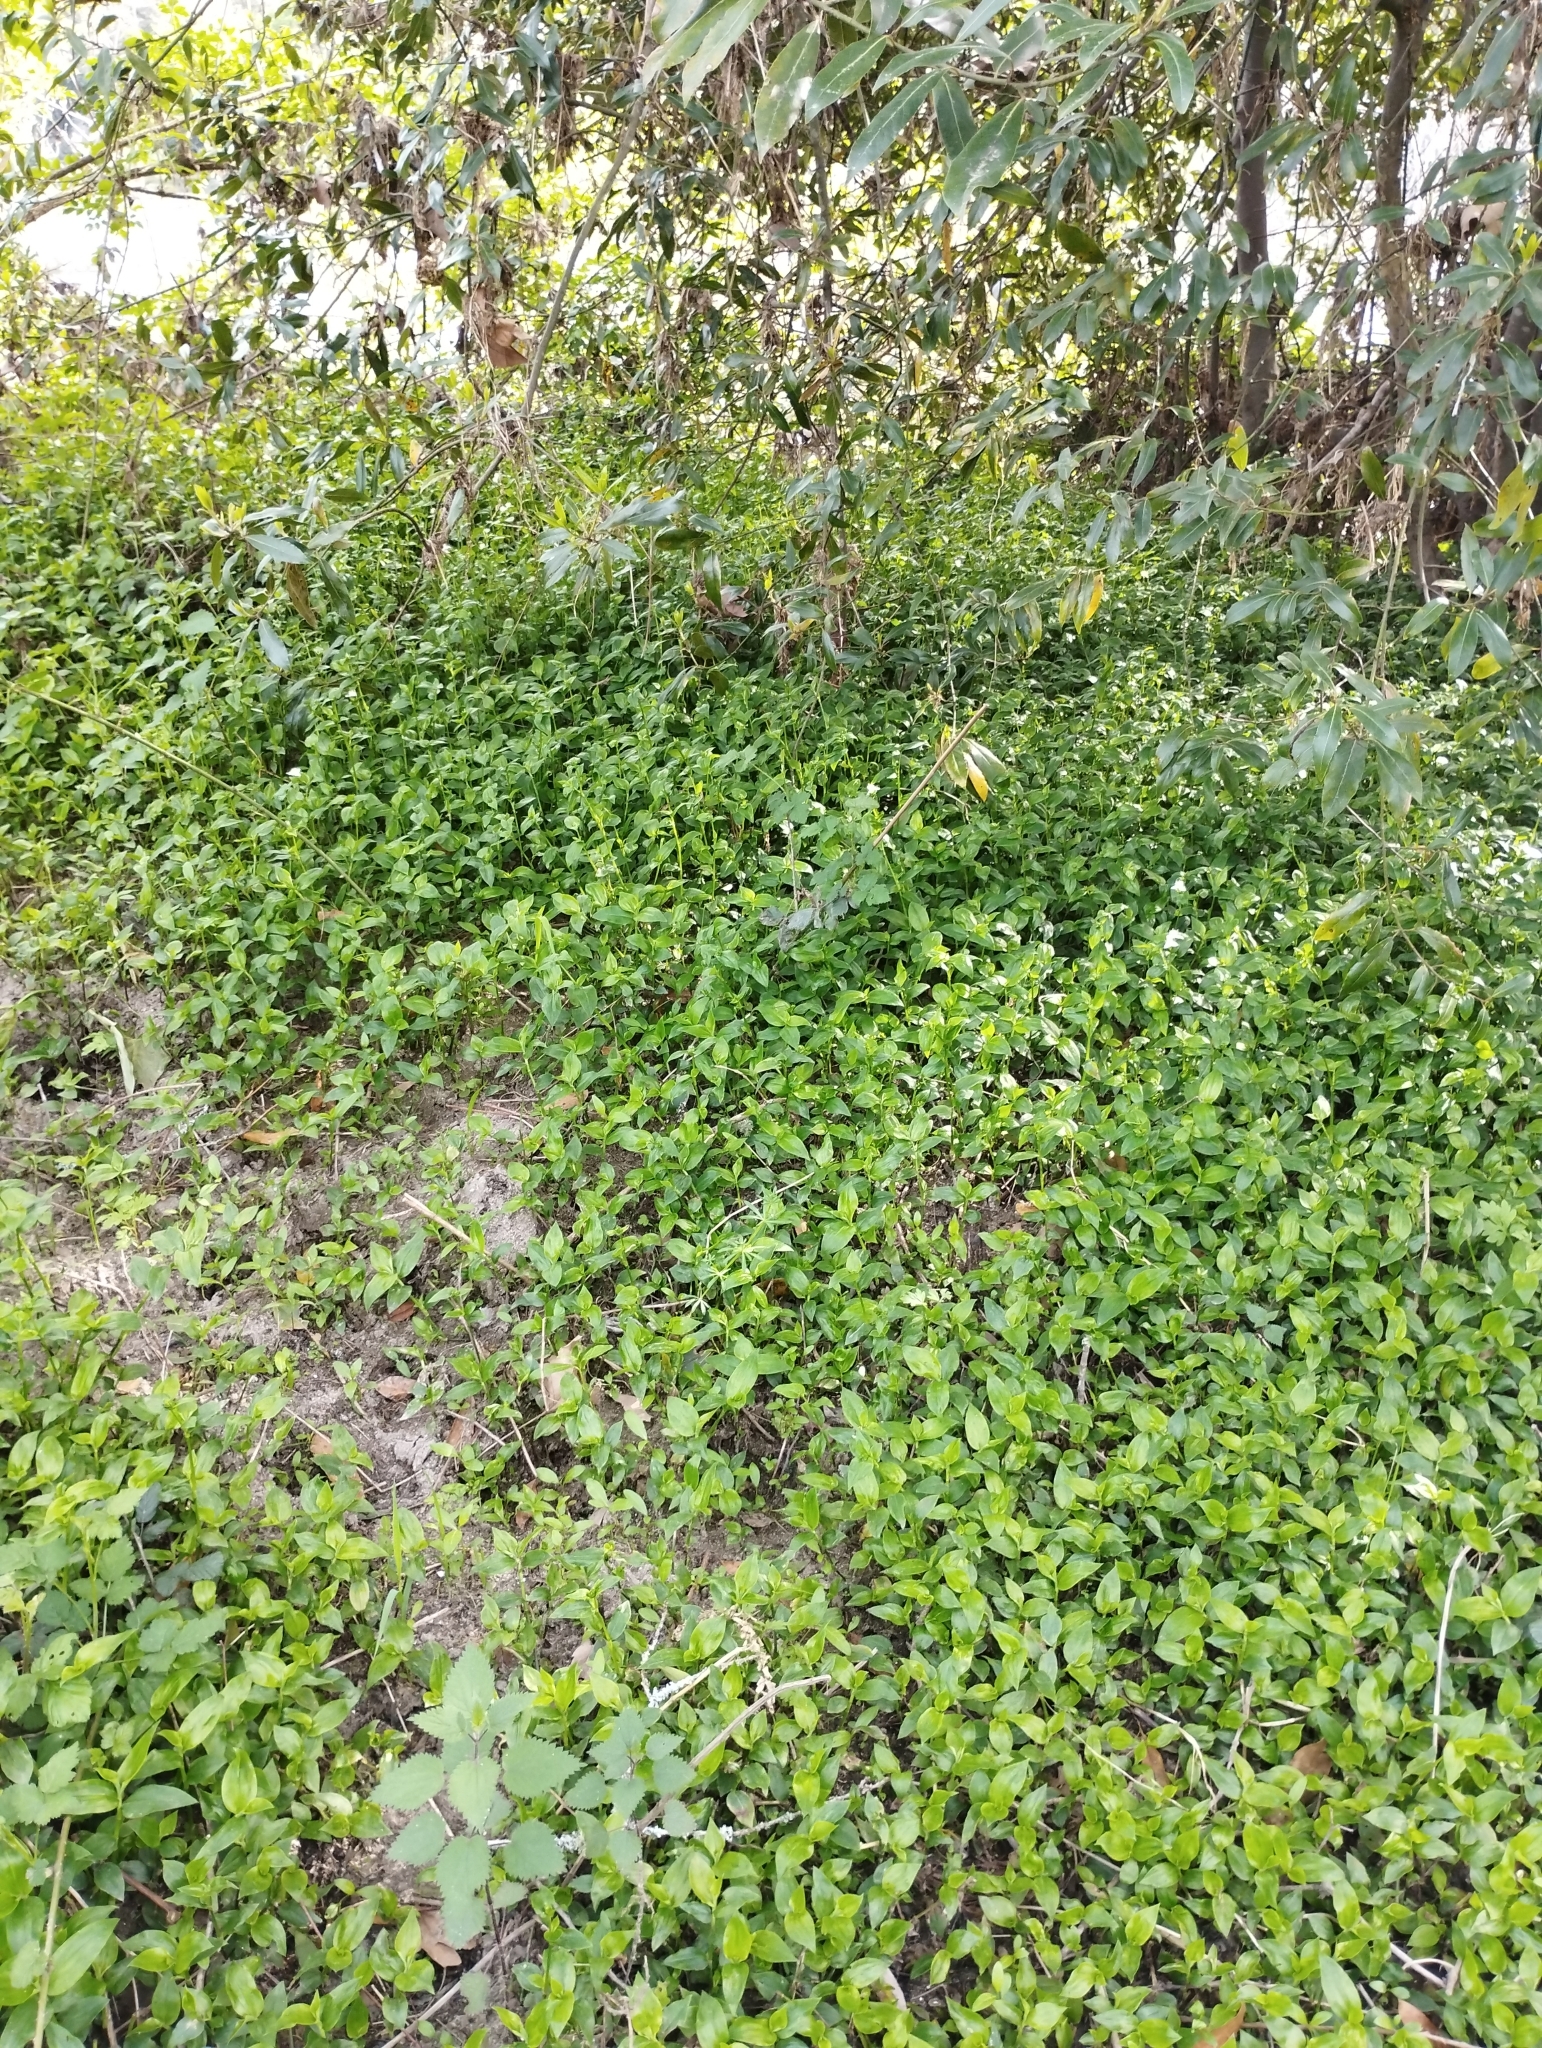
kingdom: Plantae
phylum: Tracheophyta
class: Liliopsida
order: Commelinales
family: Commelinaceae
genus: Tradescantia
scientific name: Tradescantia fluminensis
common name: Wandering-jew
